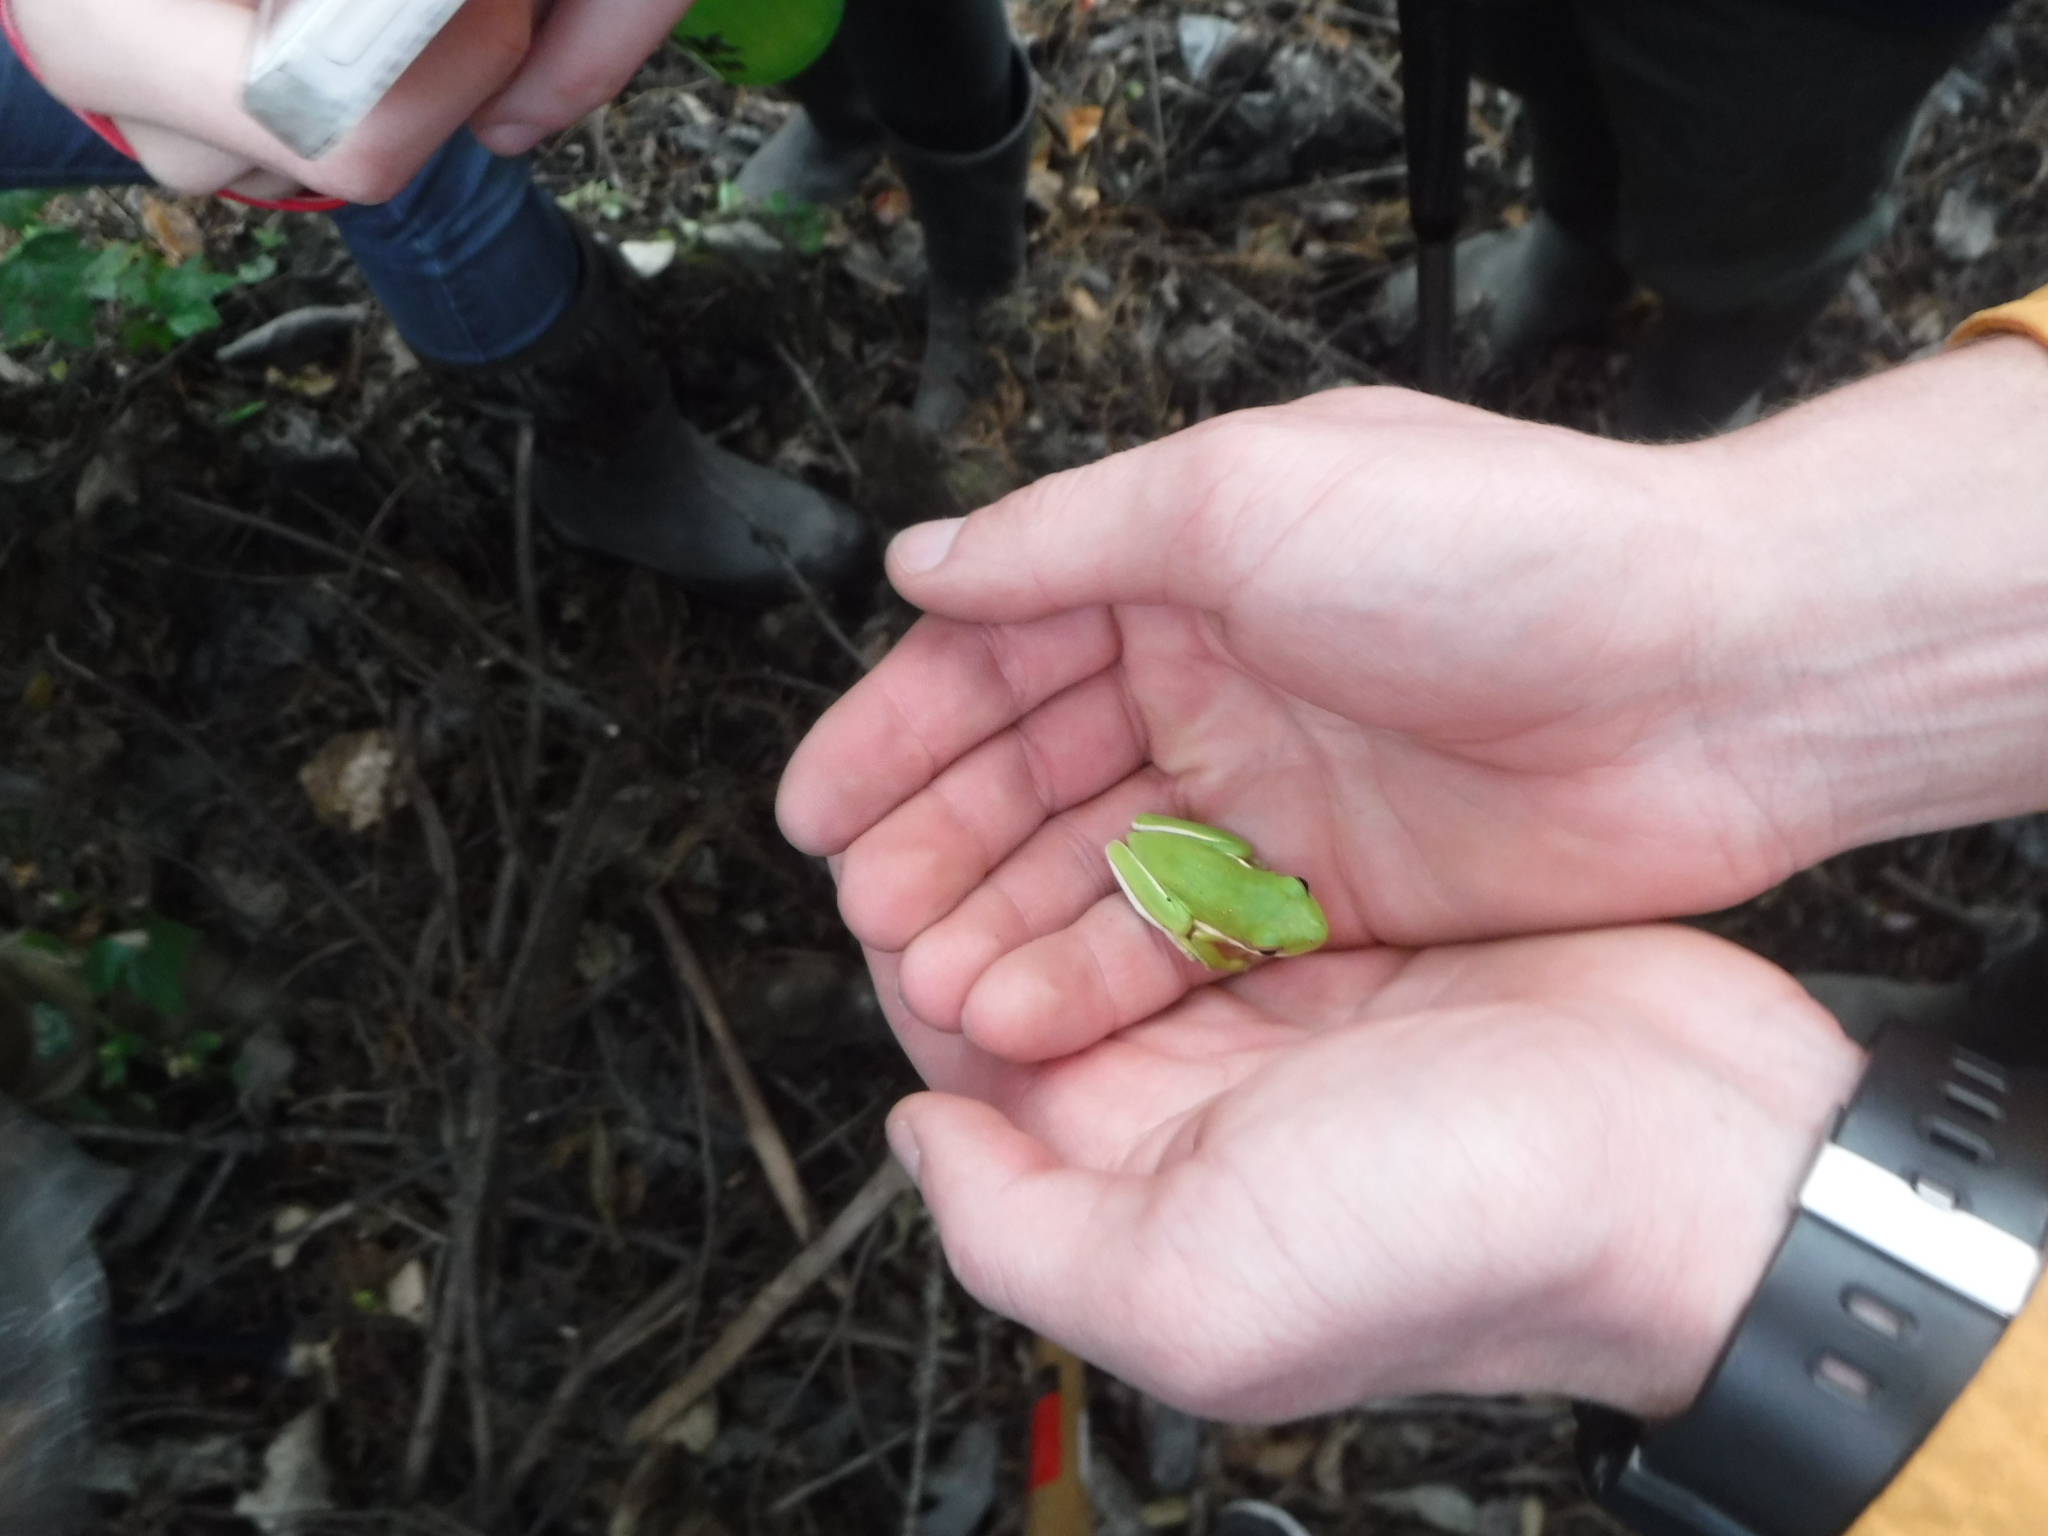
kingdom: Animalia
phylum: Chordata
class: Amphibia
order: Anura
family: Hylidae
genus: Dryophytes
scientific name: Dryophytes cinereus
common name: Green treefrog
